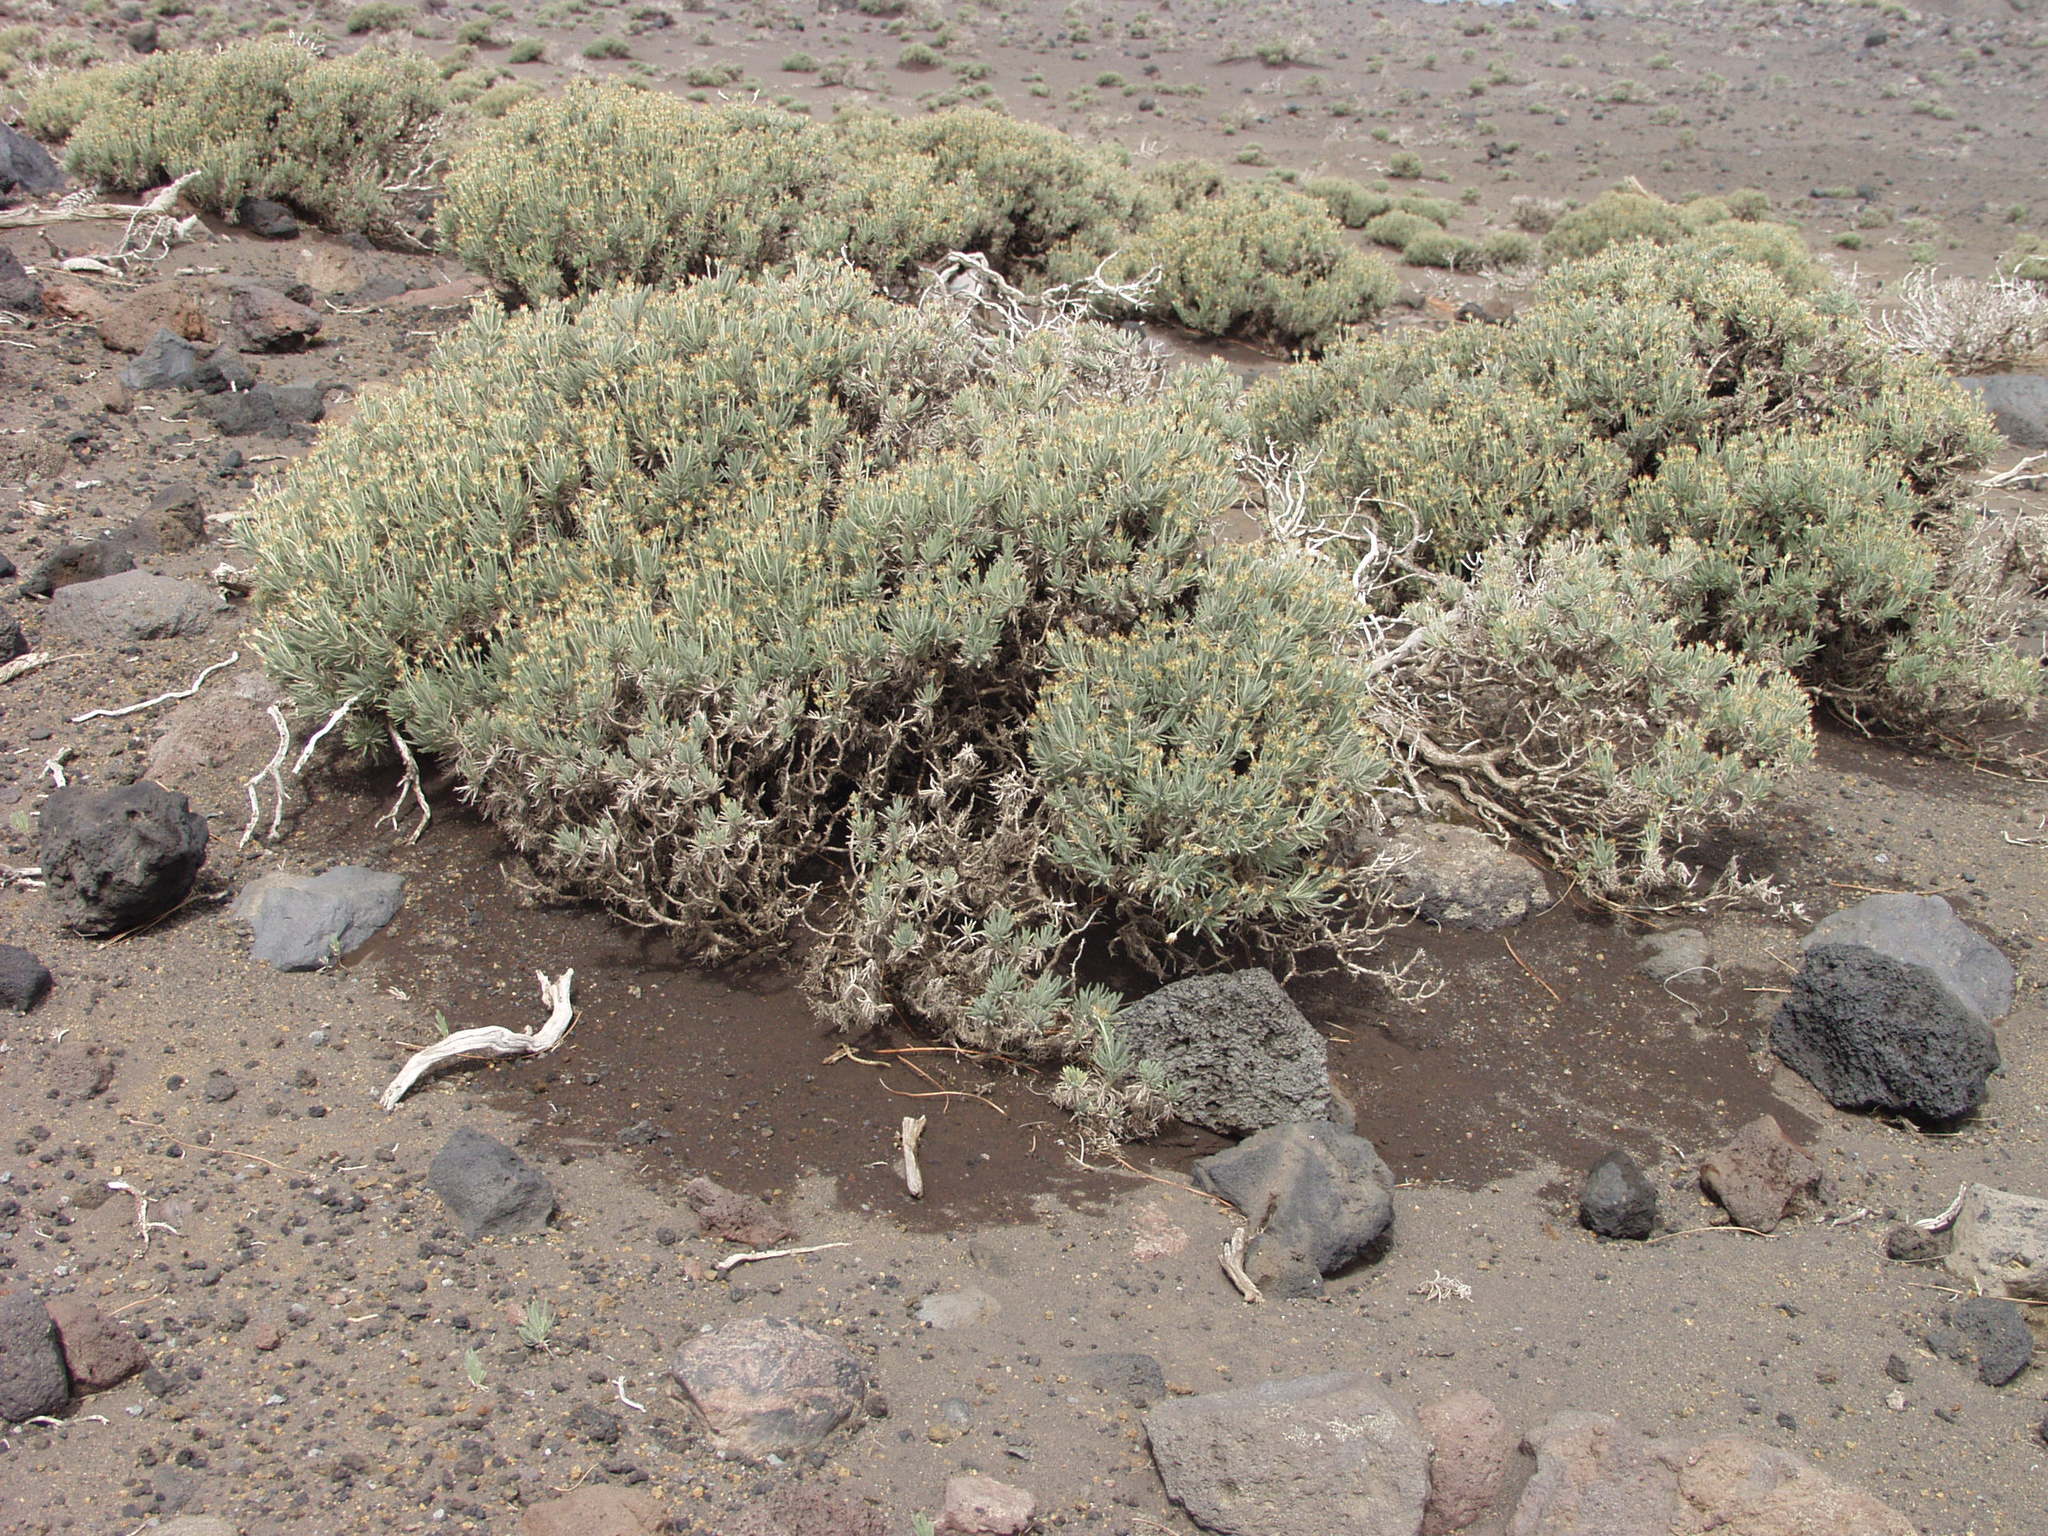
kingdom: Plantae
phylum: Tracheophyta
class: Magnoliopsida
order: Lamiales
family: Plantaginaceae
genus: Plantago
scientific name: Plantago webbii
